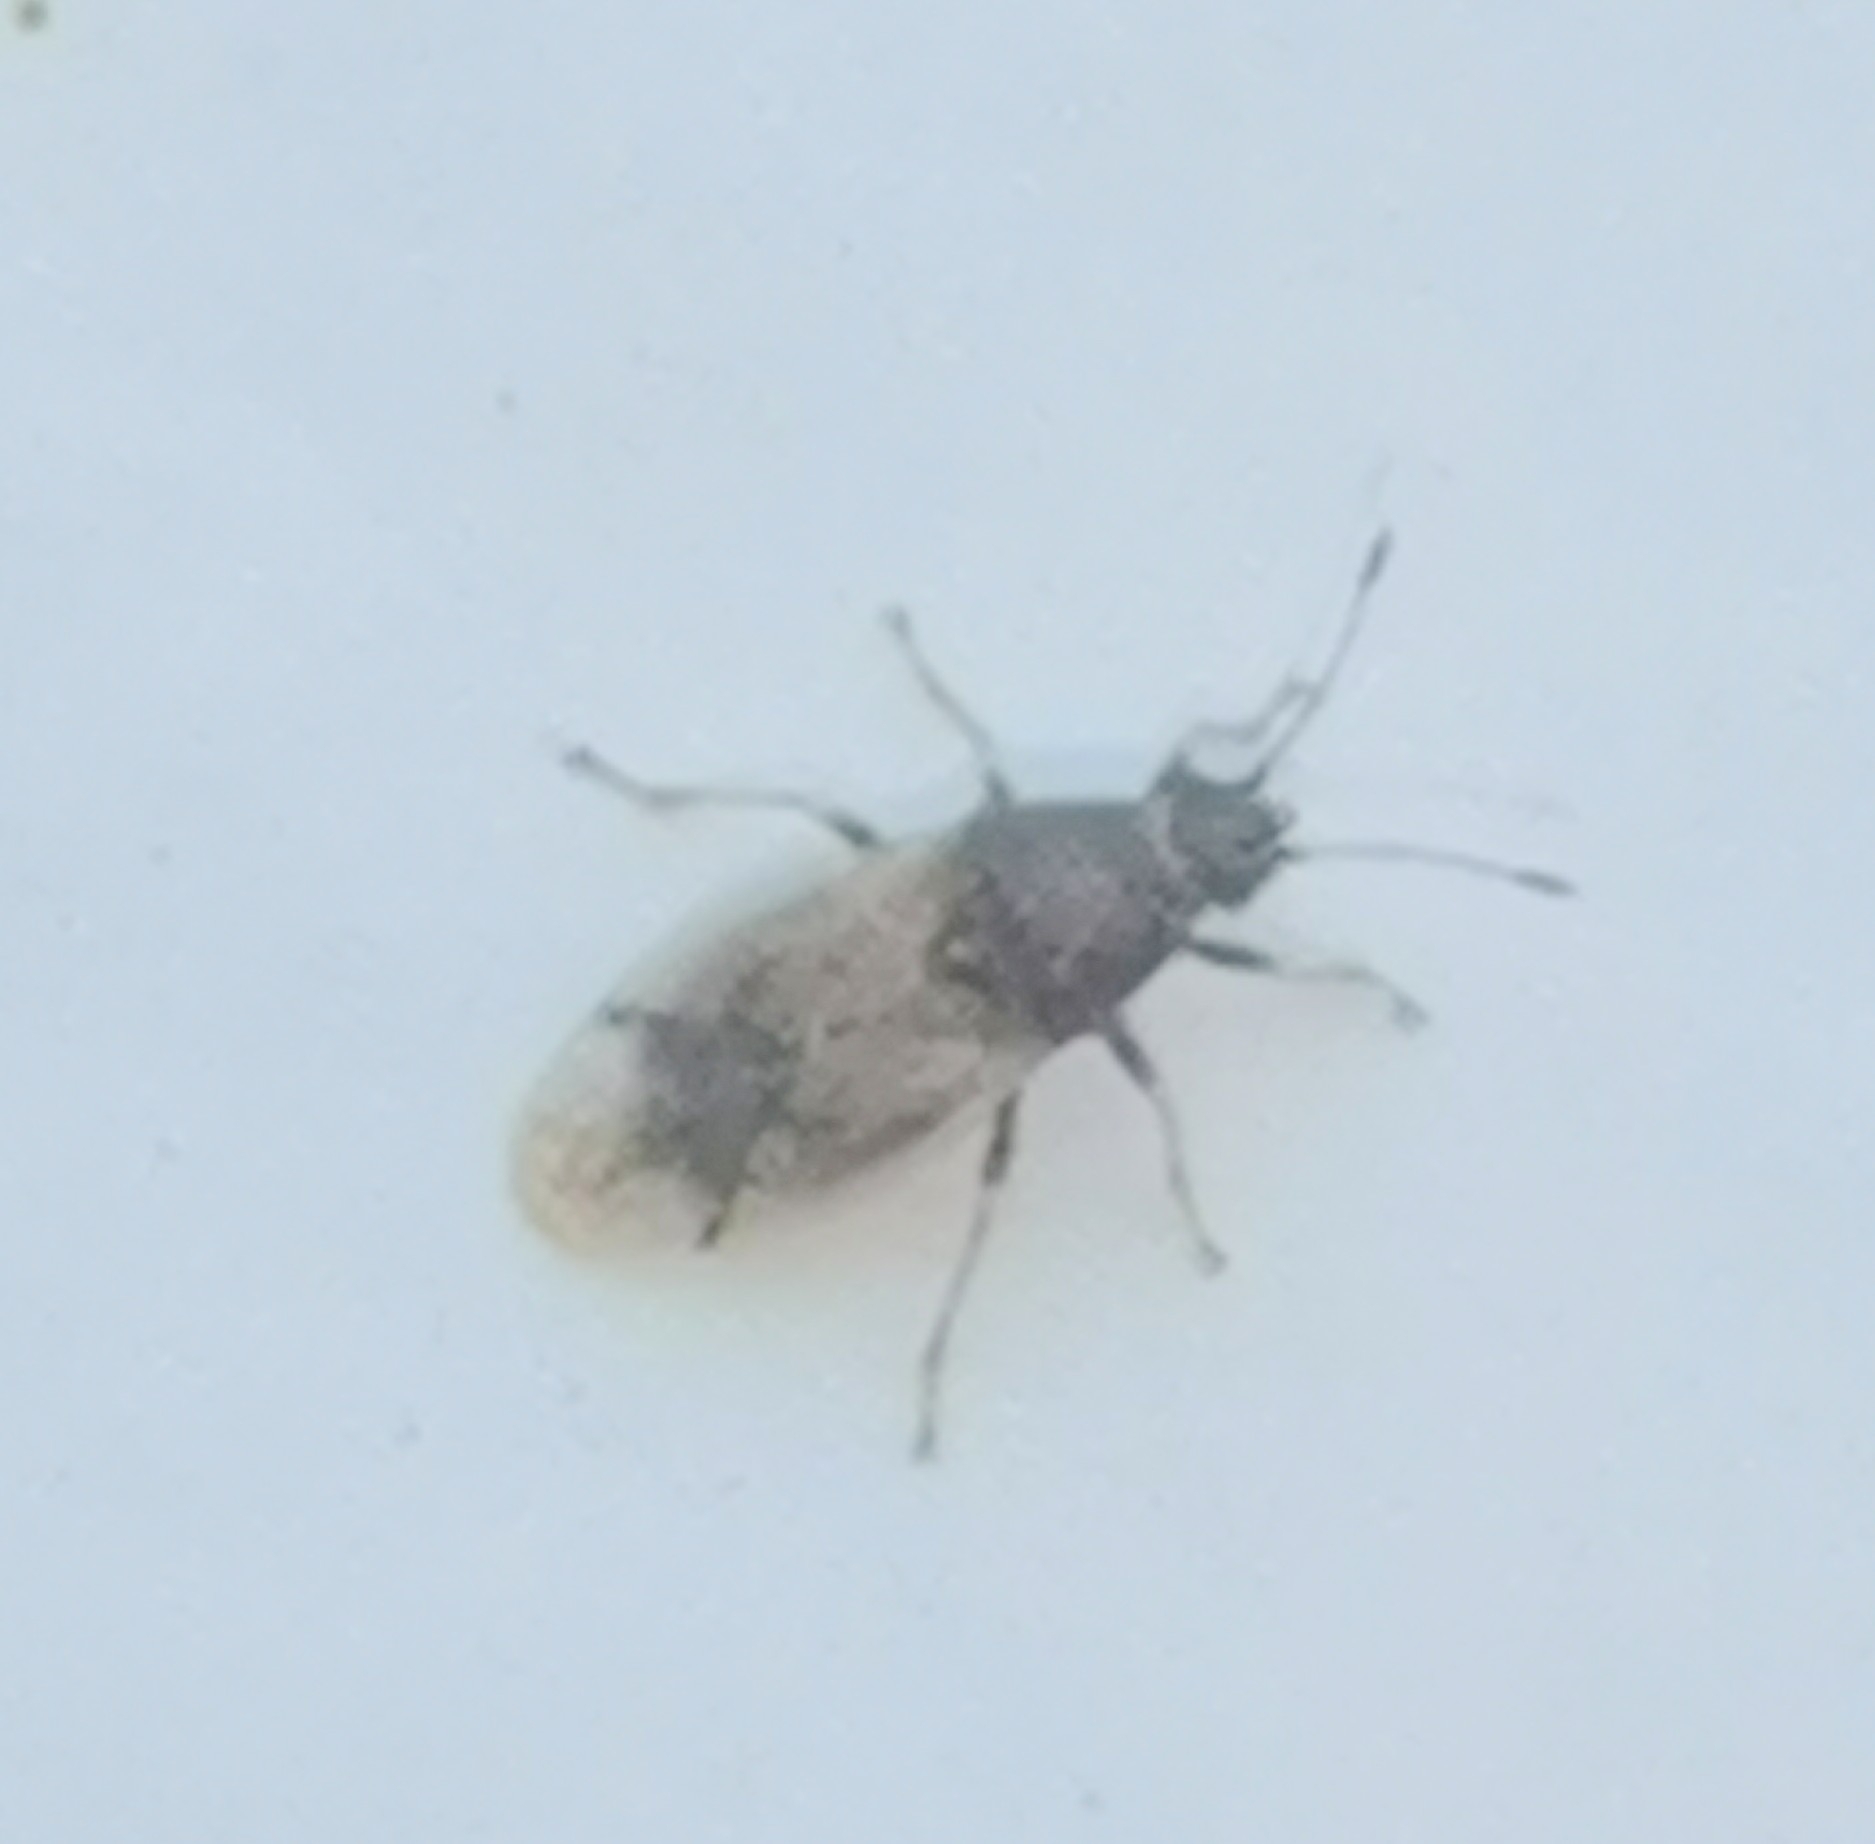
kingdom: Animalia
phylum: Arthropoda
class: Insecta
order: Hemiptera
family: Cymidae
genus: Cymus
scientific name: Cymus aurescens
